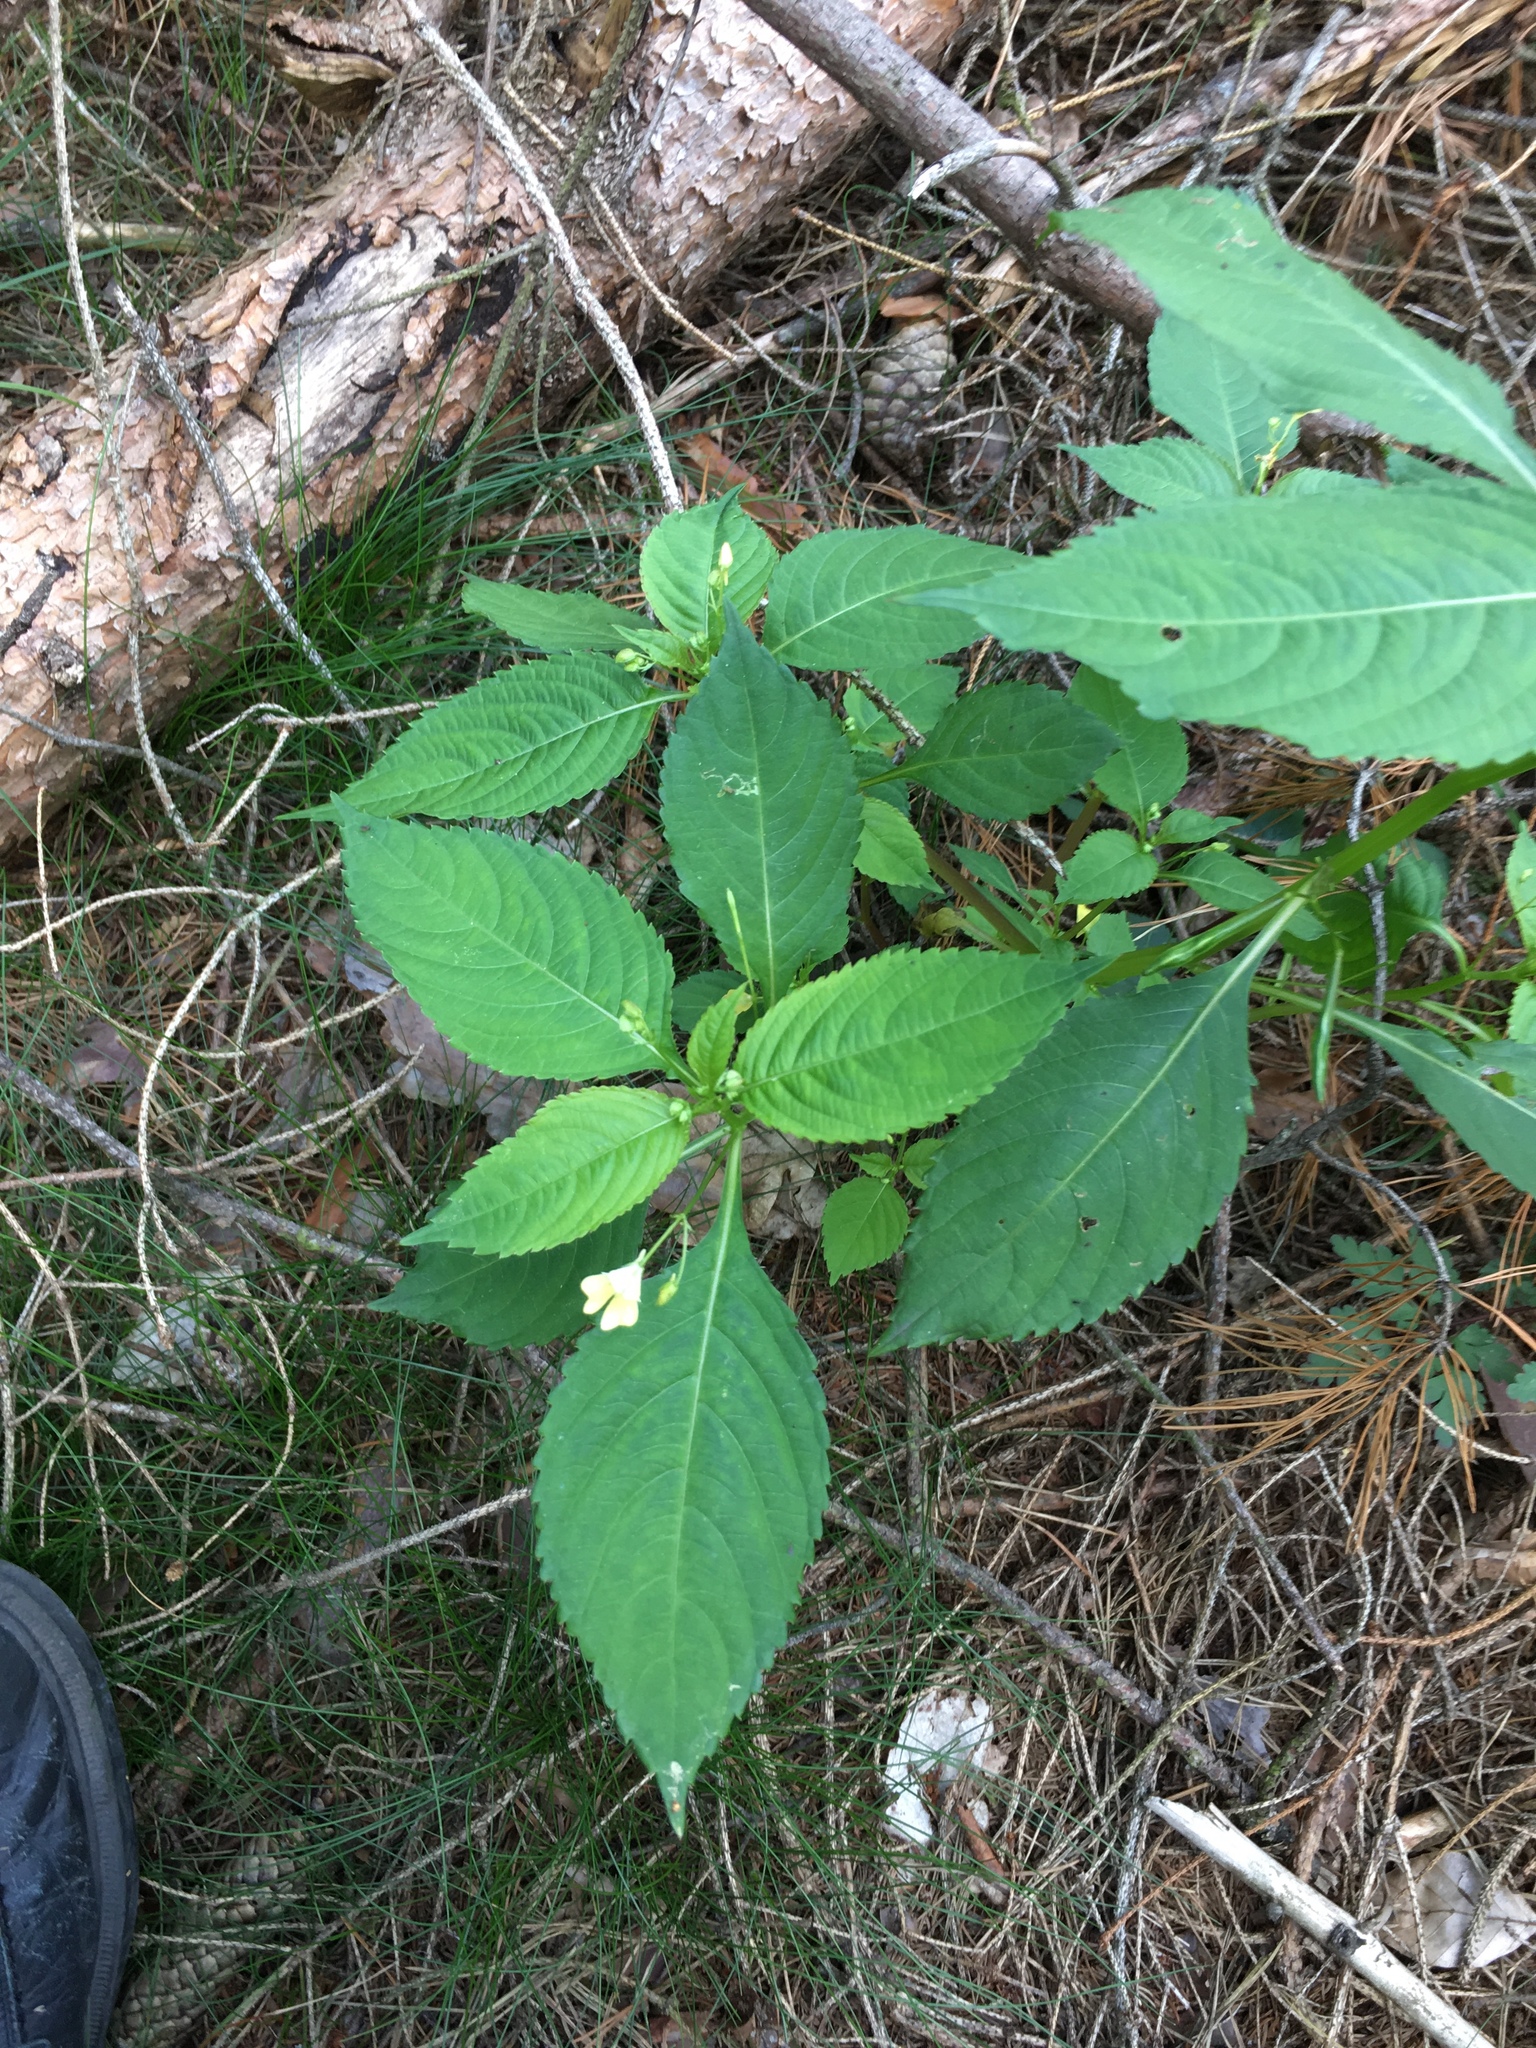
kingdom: Plantae
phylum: Tracheophyta
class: Magnoliopsida
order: Ericales
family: Balsaminaceae
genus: Impatiens
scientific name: Impatiens parviflora
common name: Small balsam
